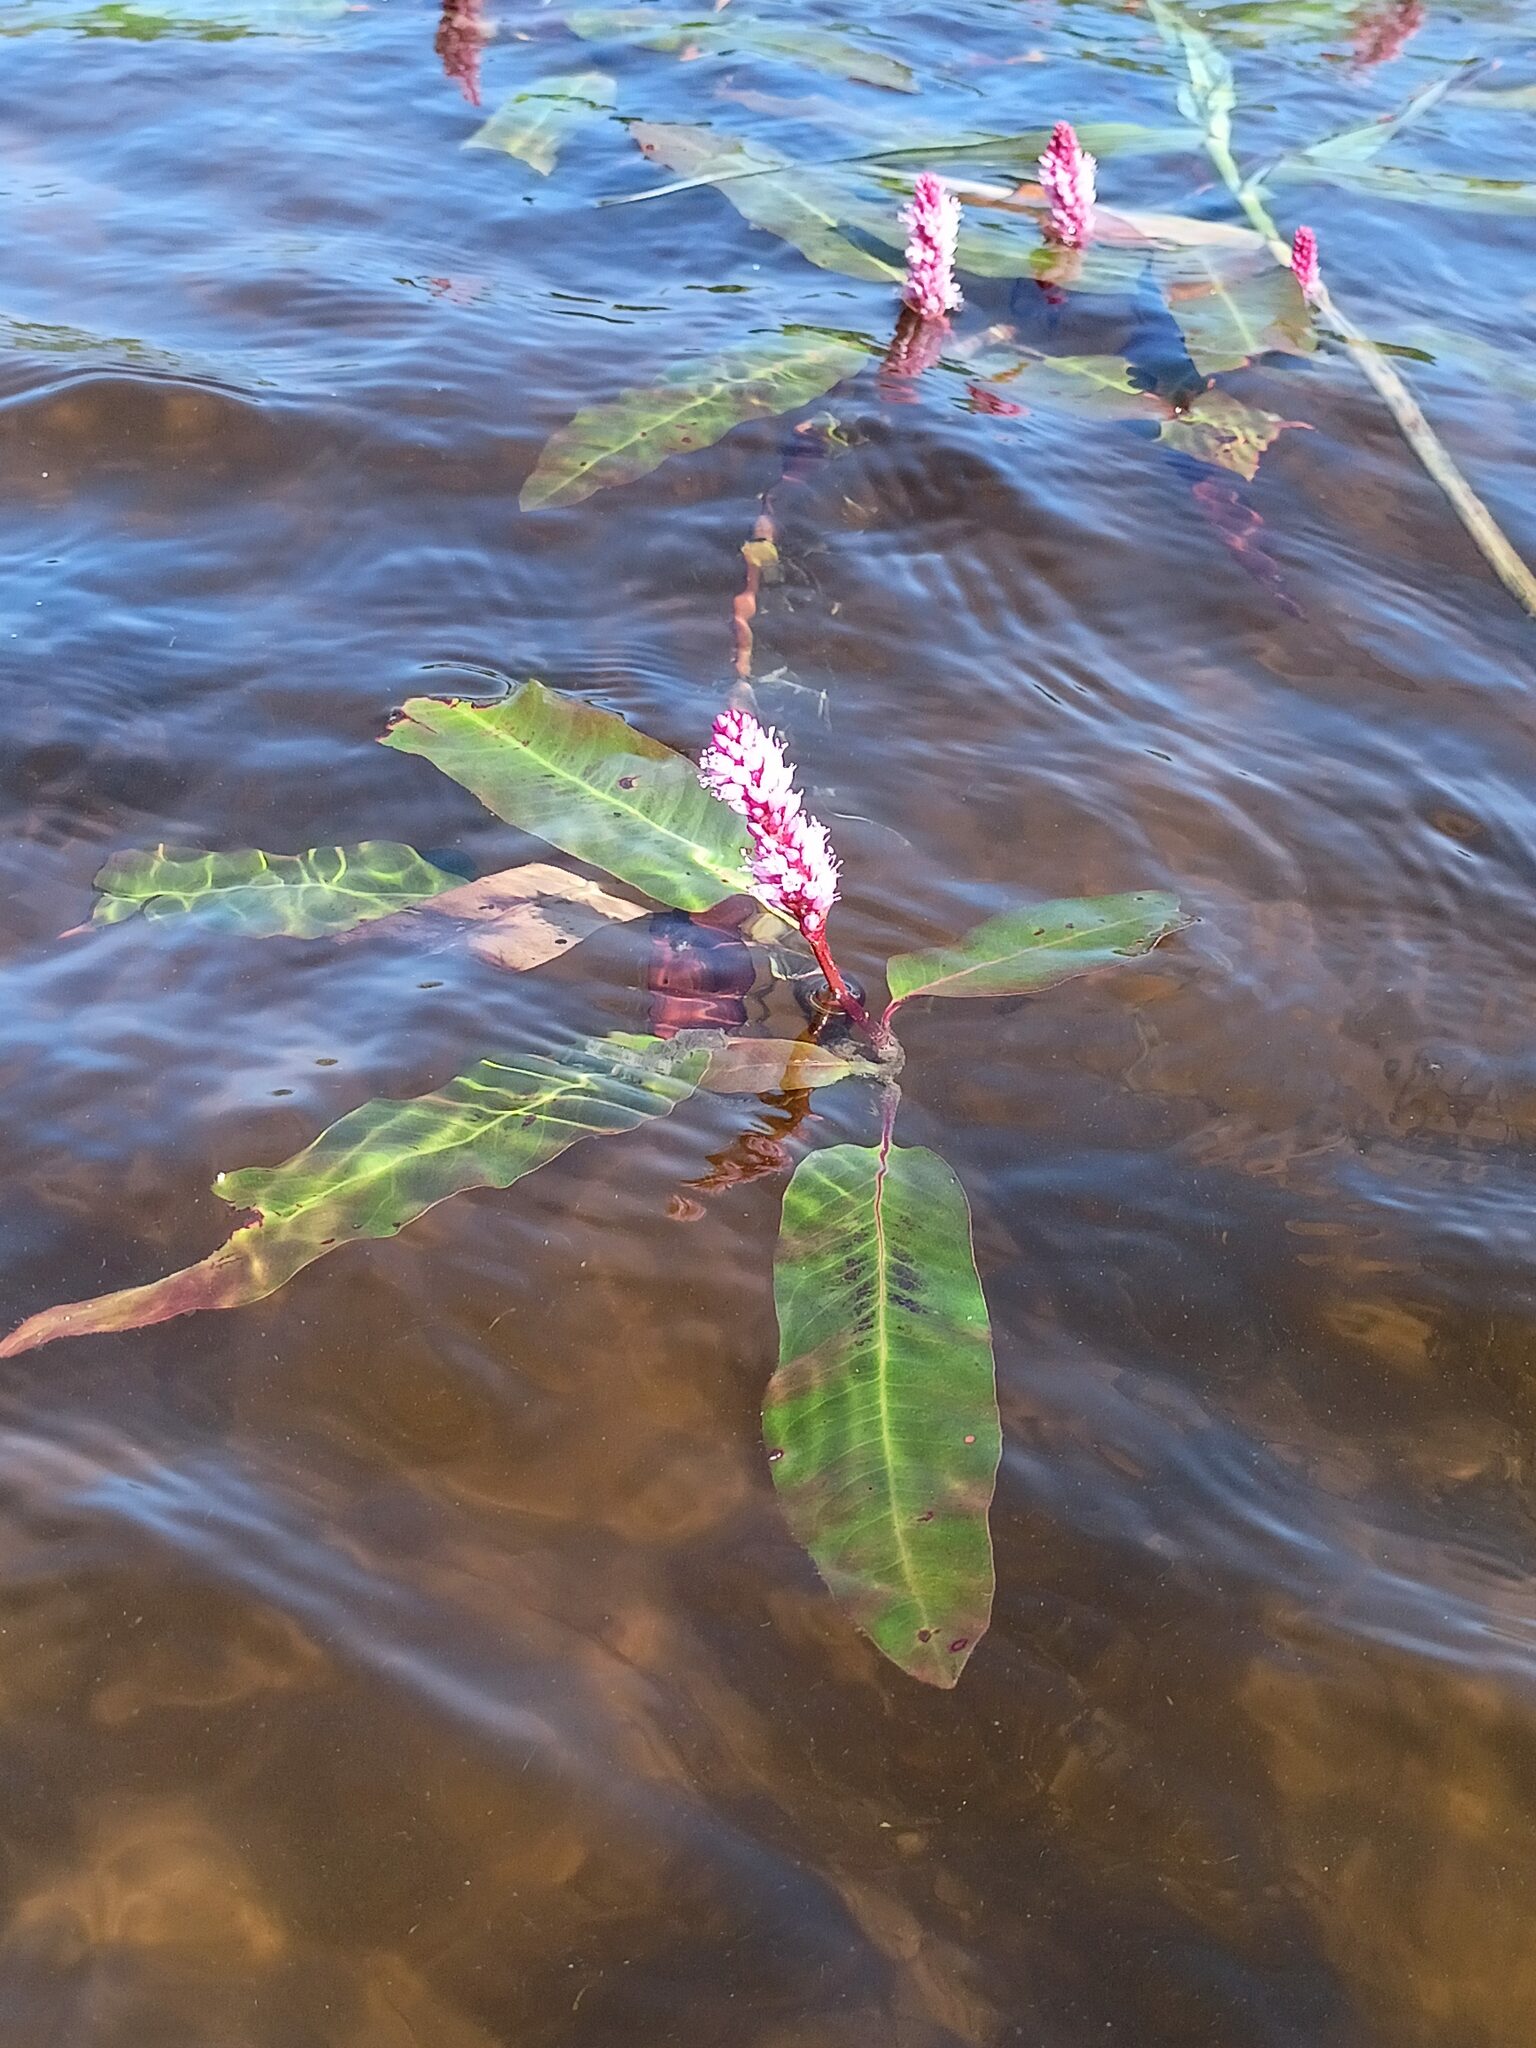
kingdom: Plantae
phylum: Tracheophyta
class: Magnoliopsida
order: Caryophyllales
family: Polygonaceae
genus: Persicaria
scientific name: Persicaria amphibia
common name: Amphibious bistort
